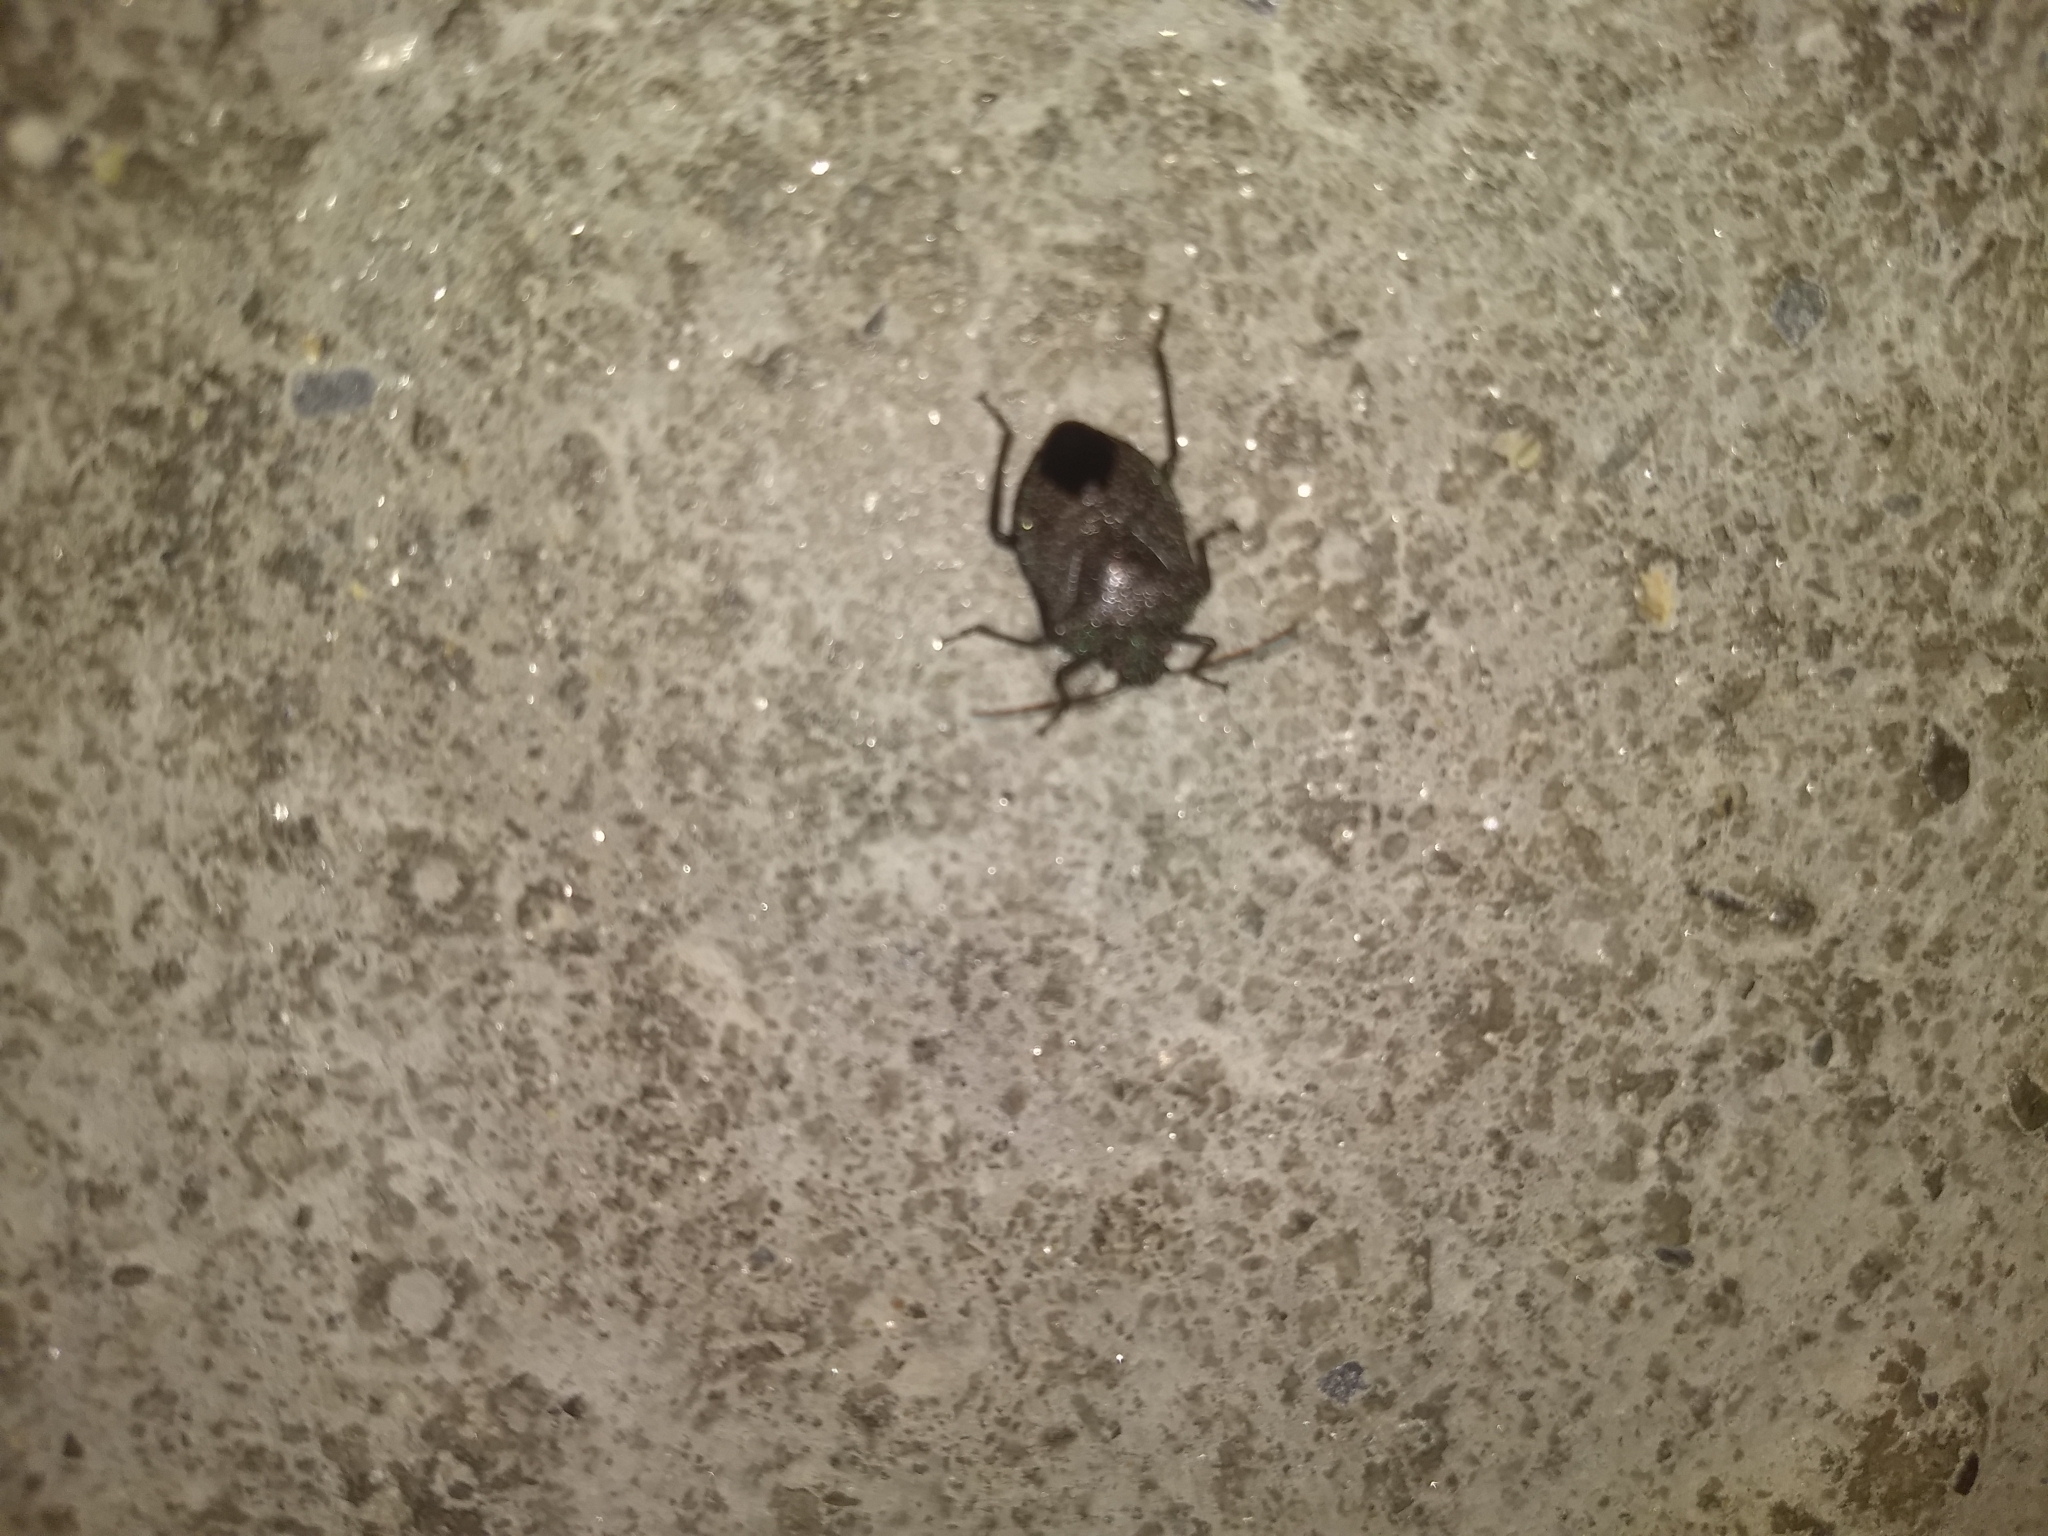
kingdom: Animalia
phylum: Arthropoda
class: Insecta
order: Hemiptera
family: Pentatomidae
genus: Pellaea
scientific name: Pellaea stictica
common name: Stink bug
